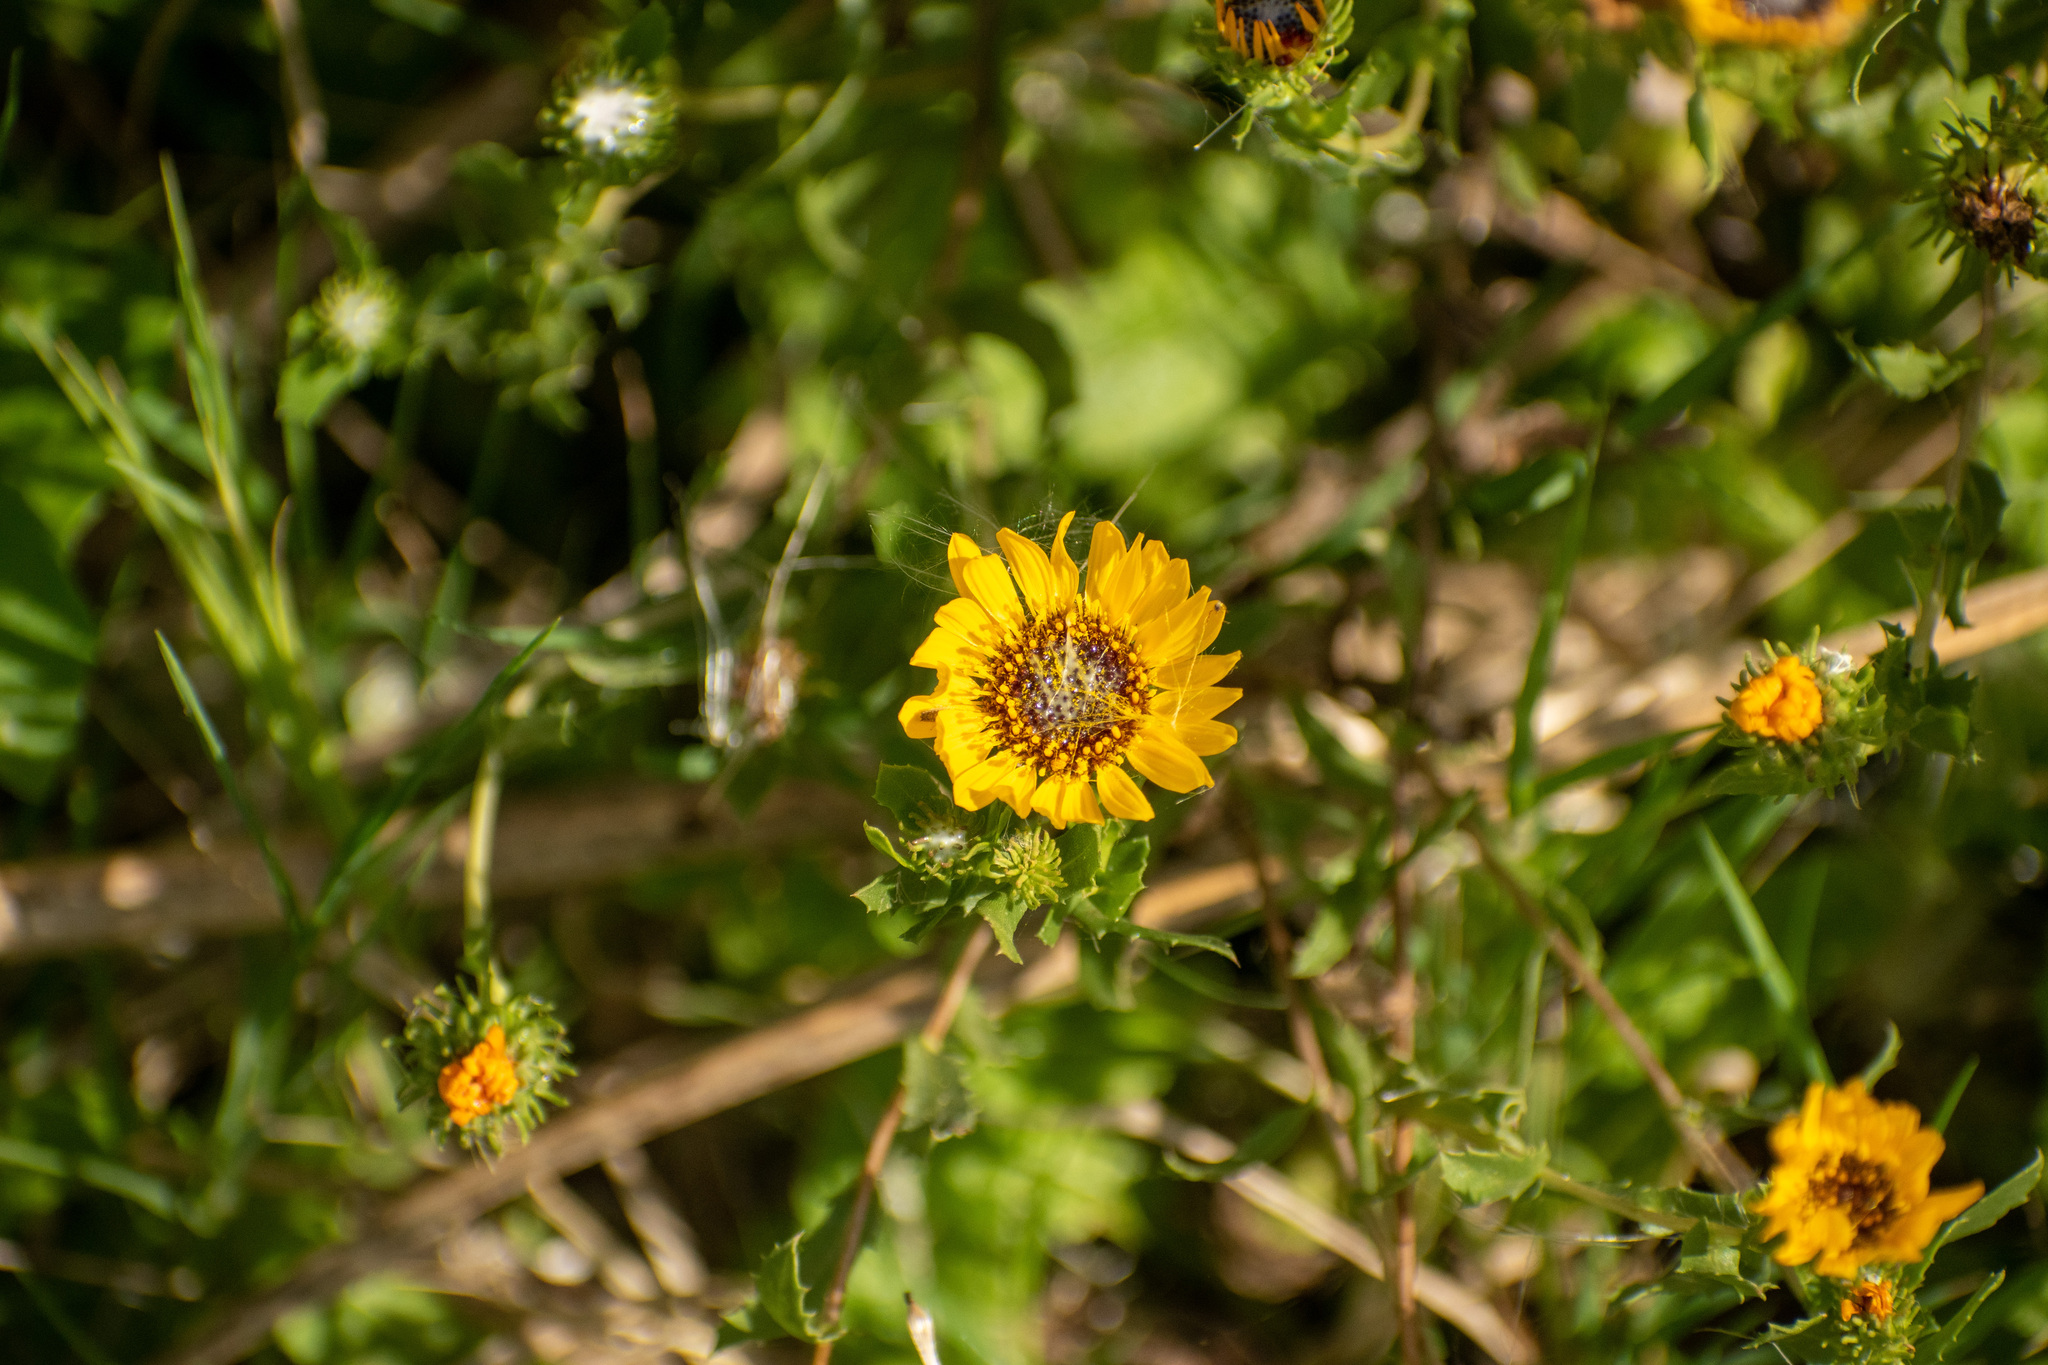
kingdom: Plantae
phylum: Tracheophyta
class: Magnoliopsida
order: Asterales
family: Asteraceae
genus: Grindelia
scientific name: Grindelia pulchella
